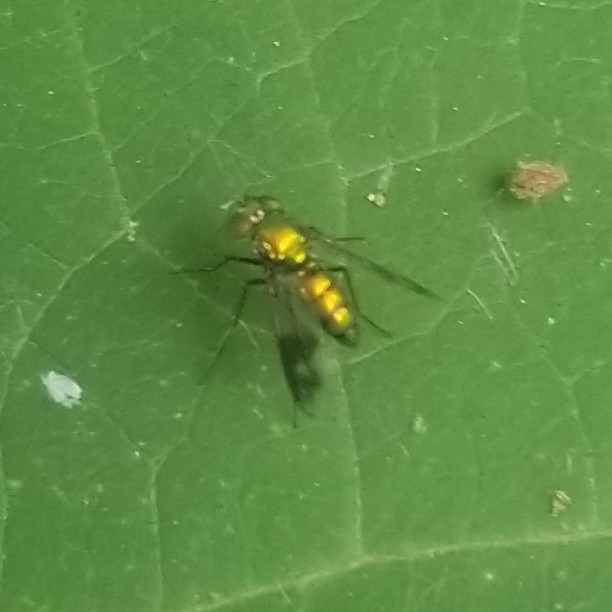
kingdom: Animalia
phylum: Arthropoda
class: Insecta
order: Diptera
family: Dolichopodidae
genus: Condylostylus
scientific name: Condylostylus patibulatus
